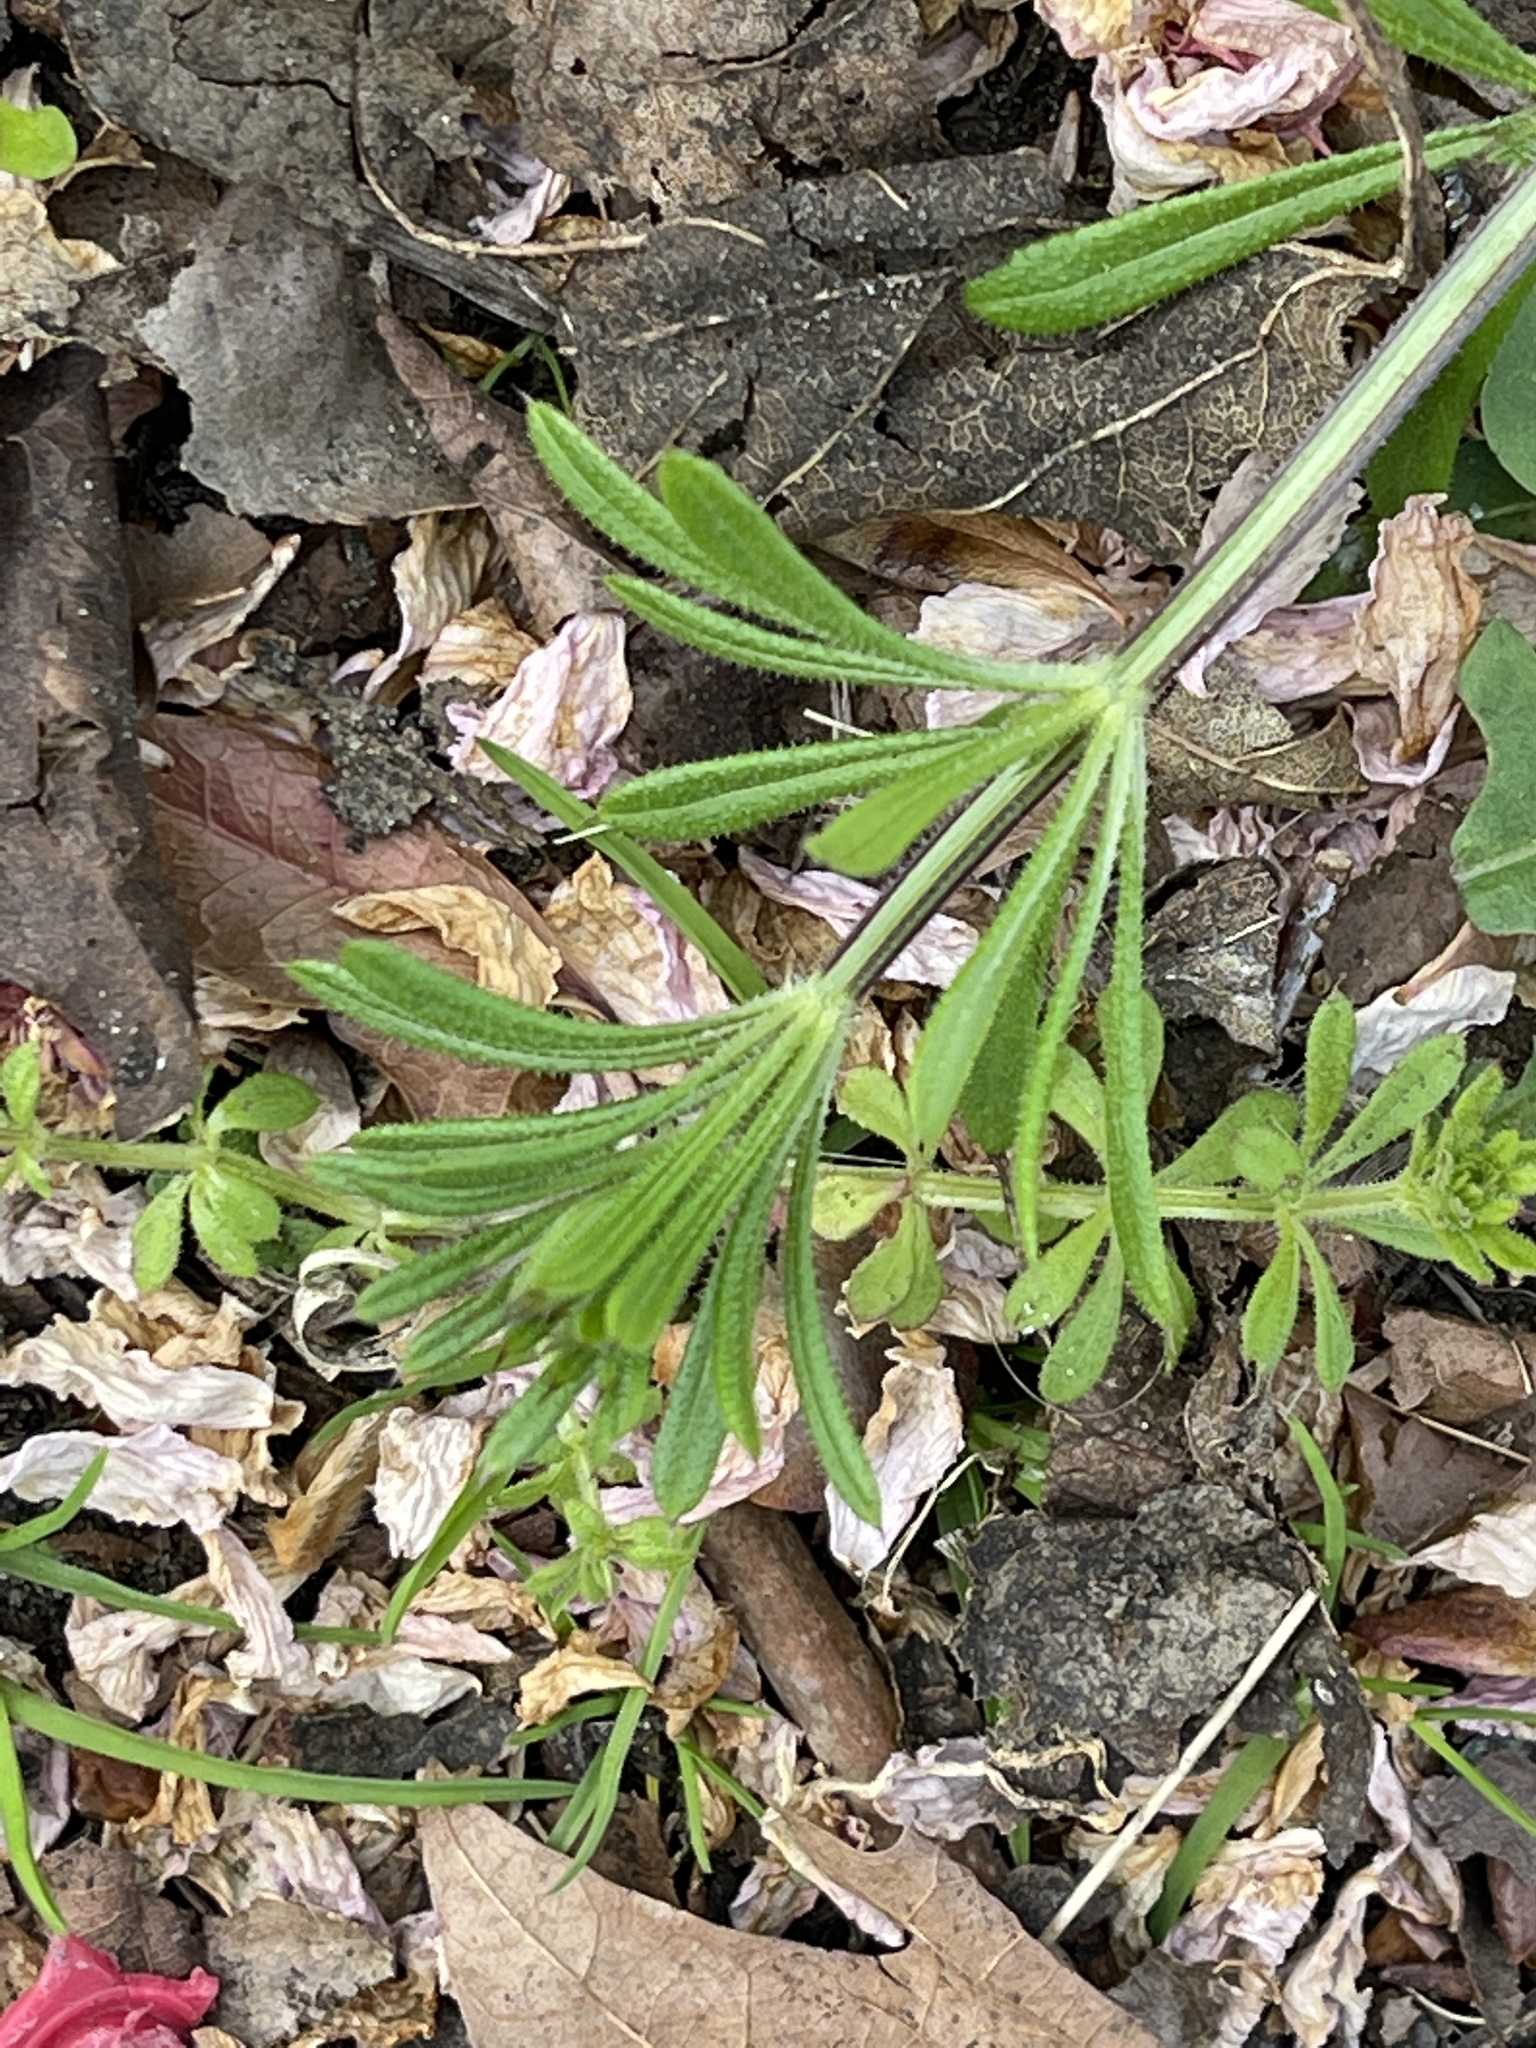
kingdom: Plantae
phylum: Tracheophyta
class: Magnoliopsida
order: Gentianales
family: Rubiaceae
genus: Galium
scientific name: Galium aparine
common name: Cleavers
